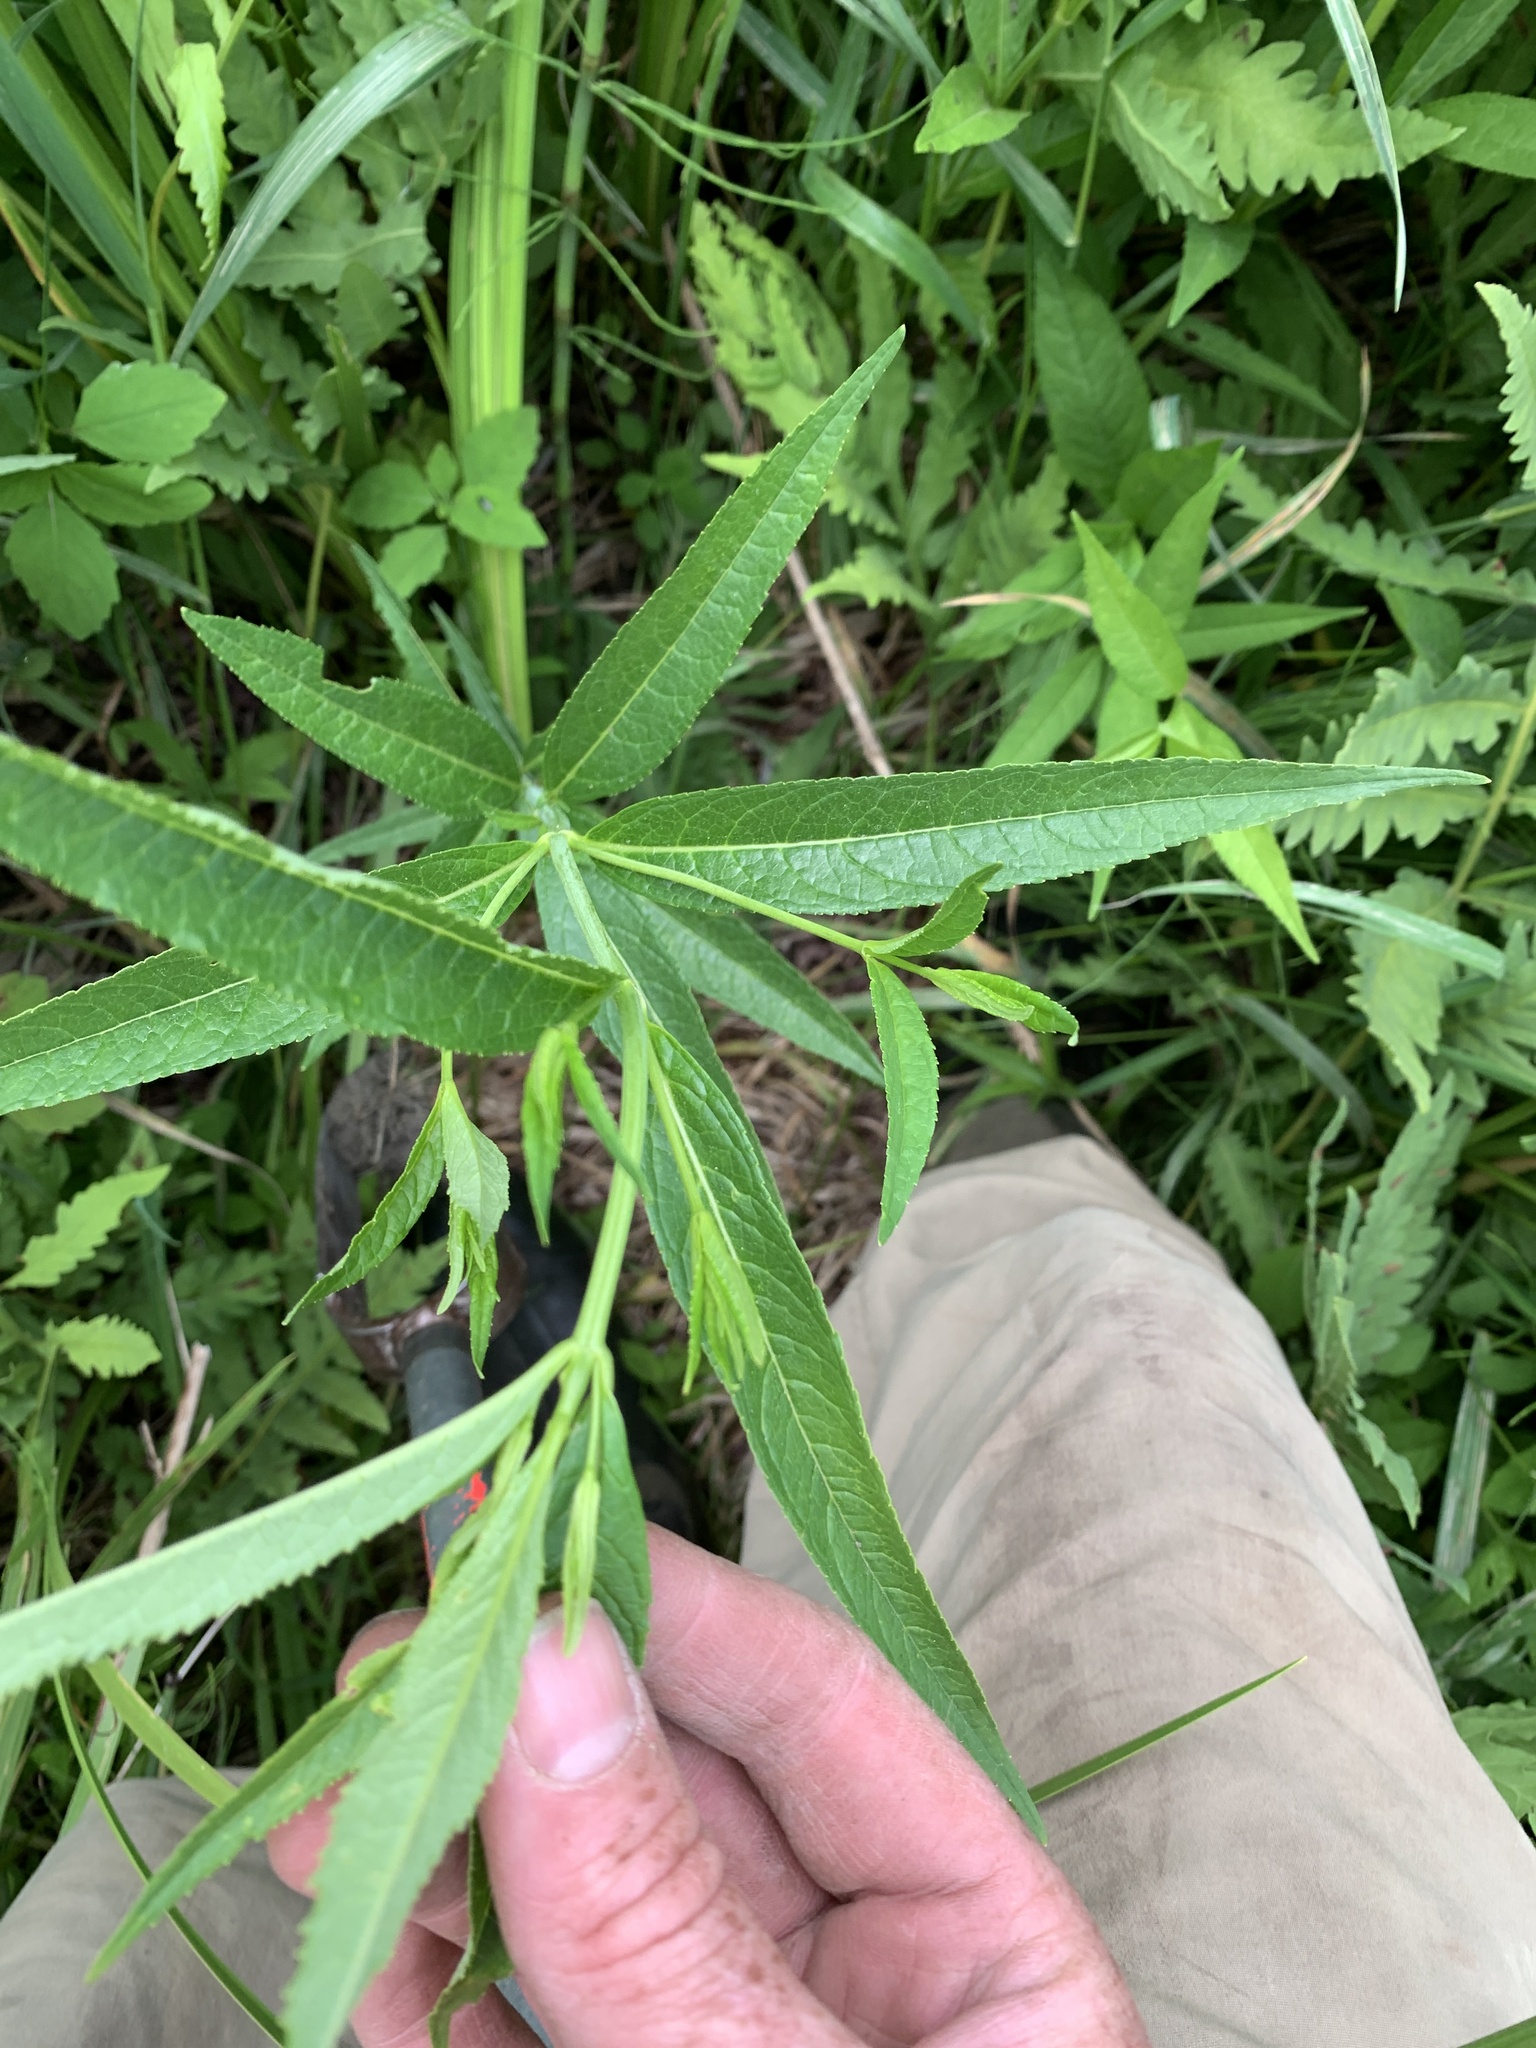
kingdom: Plantae
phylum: Tracheophyta
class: Magnoliopsida
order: Lamiales
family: Plantaginaceae
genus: Chelone
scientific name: Chelone glabra
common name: Snakehead
